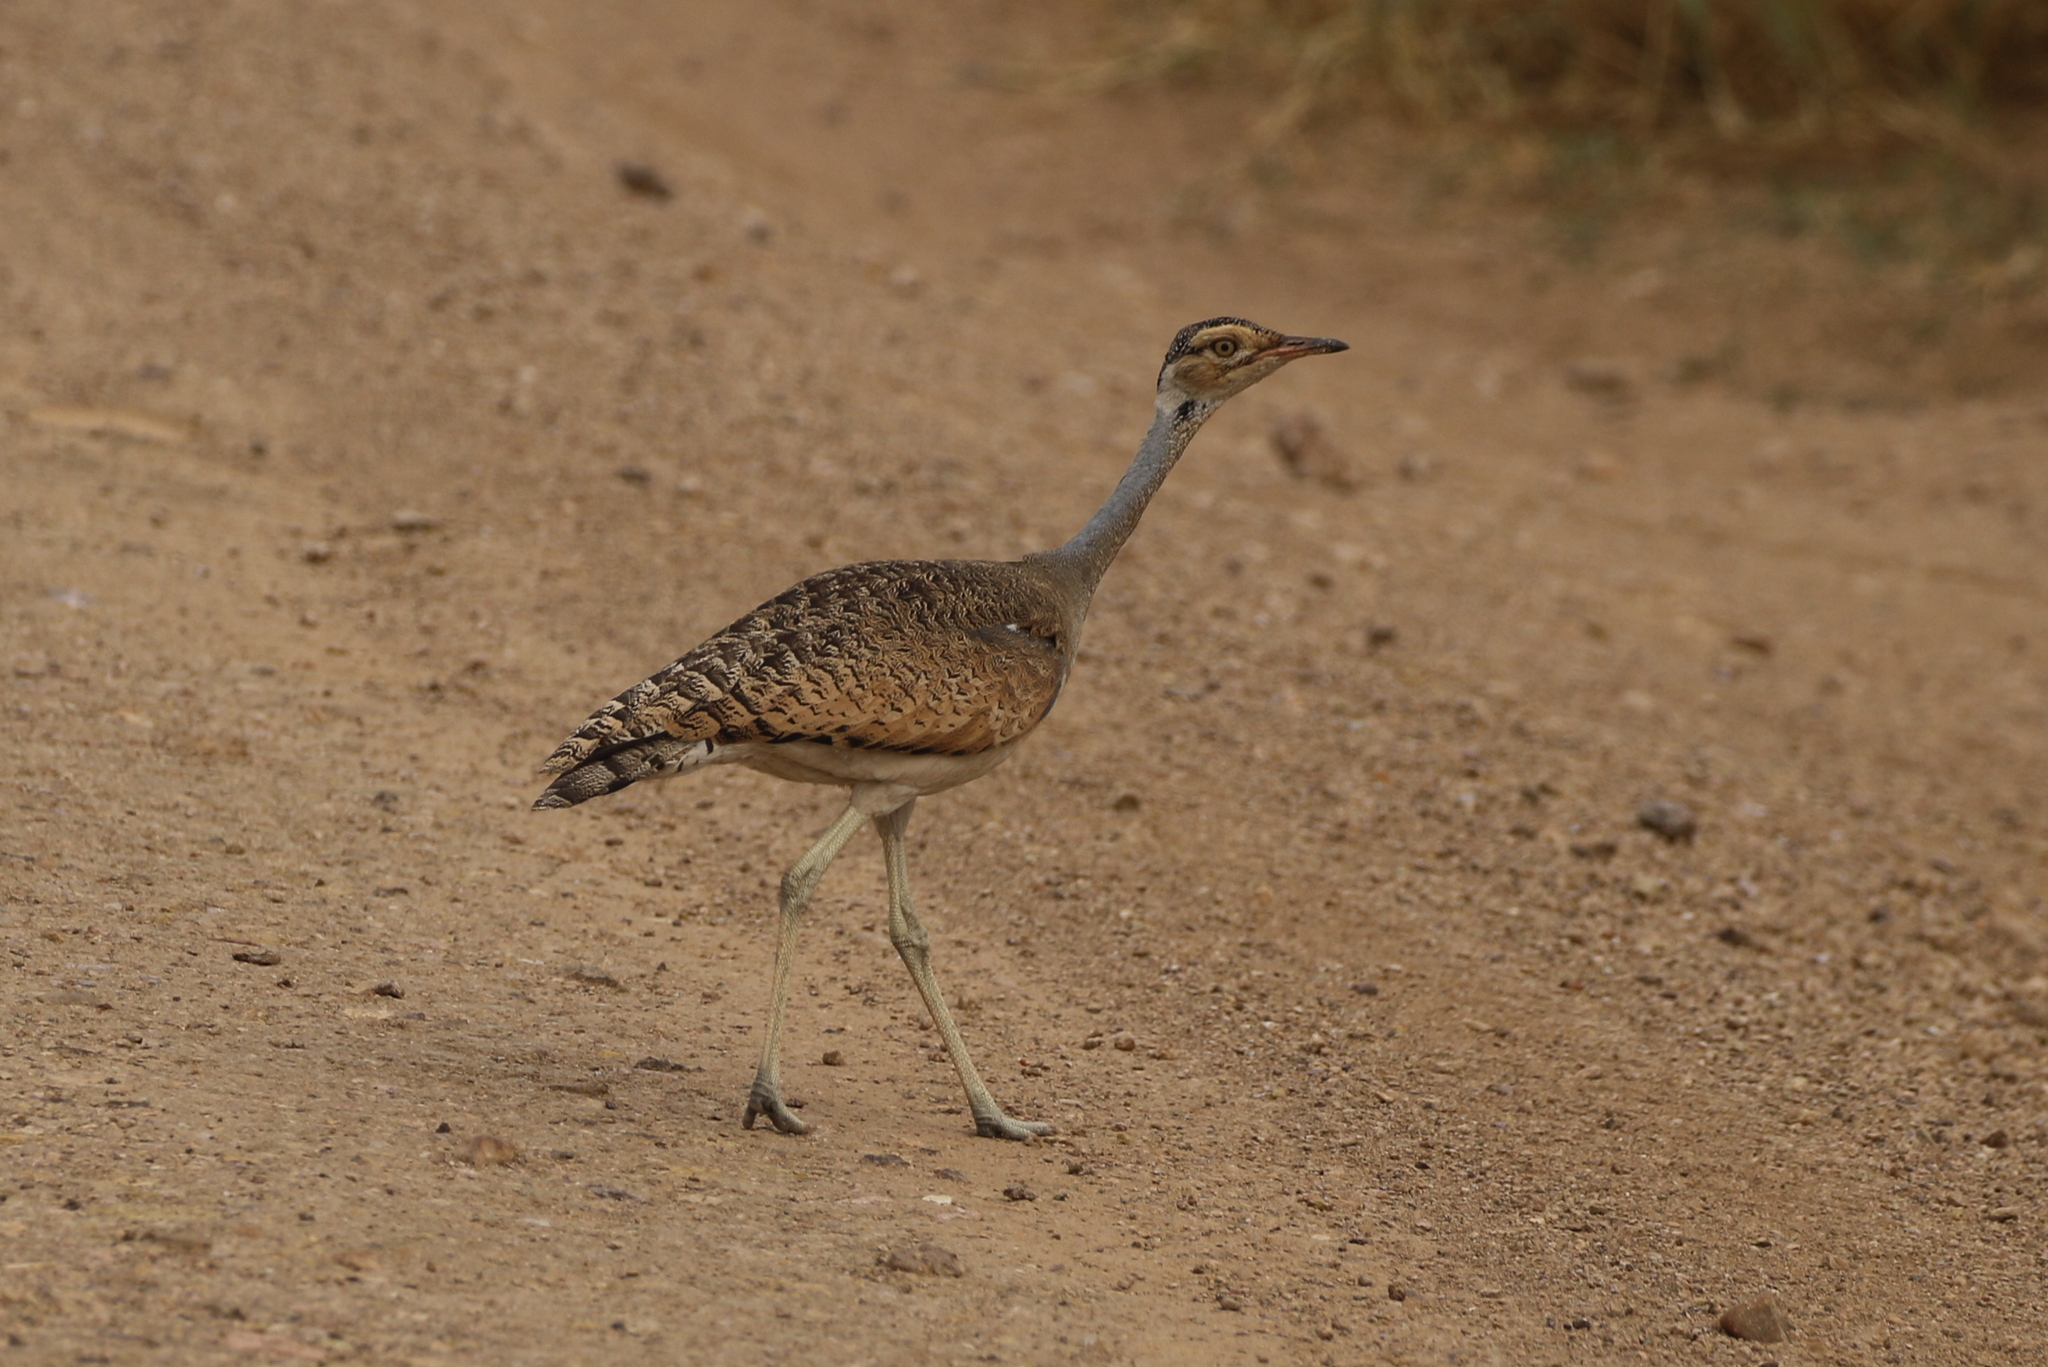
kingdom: Animalia
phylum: Chordata
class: Aves
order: Otidiformes
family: Otididae
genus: Eupodotis
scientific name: Eupodotis senegalensis
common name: White-bellied bustard
